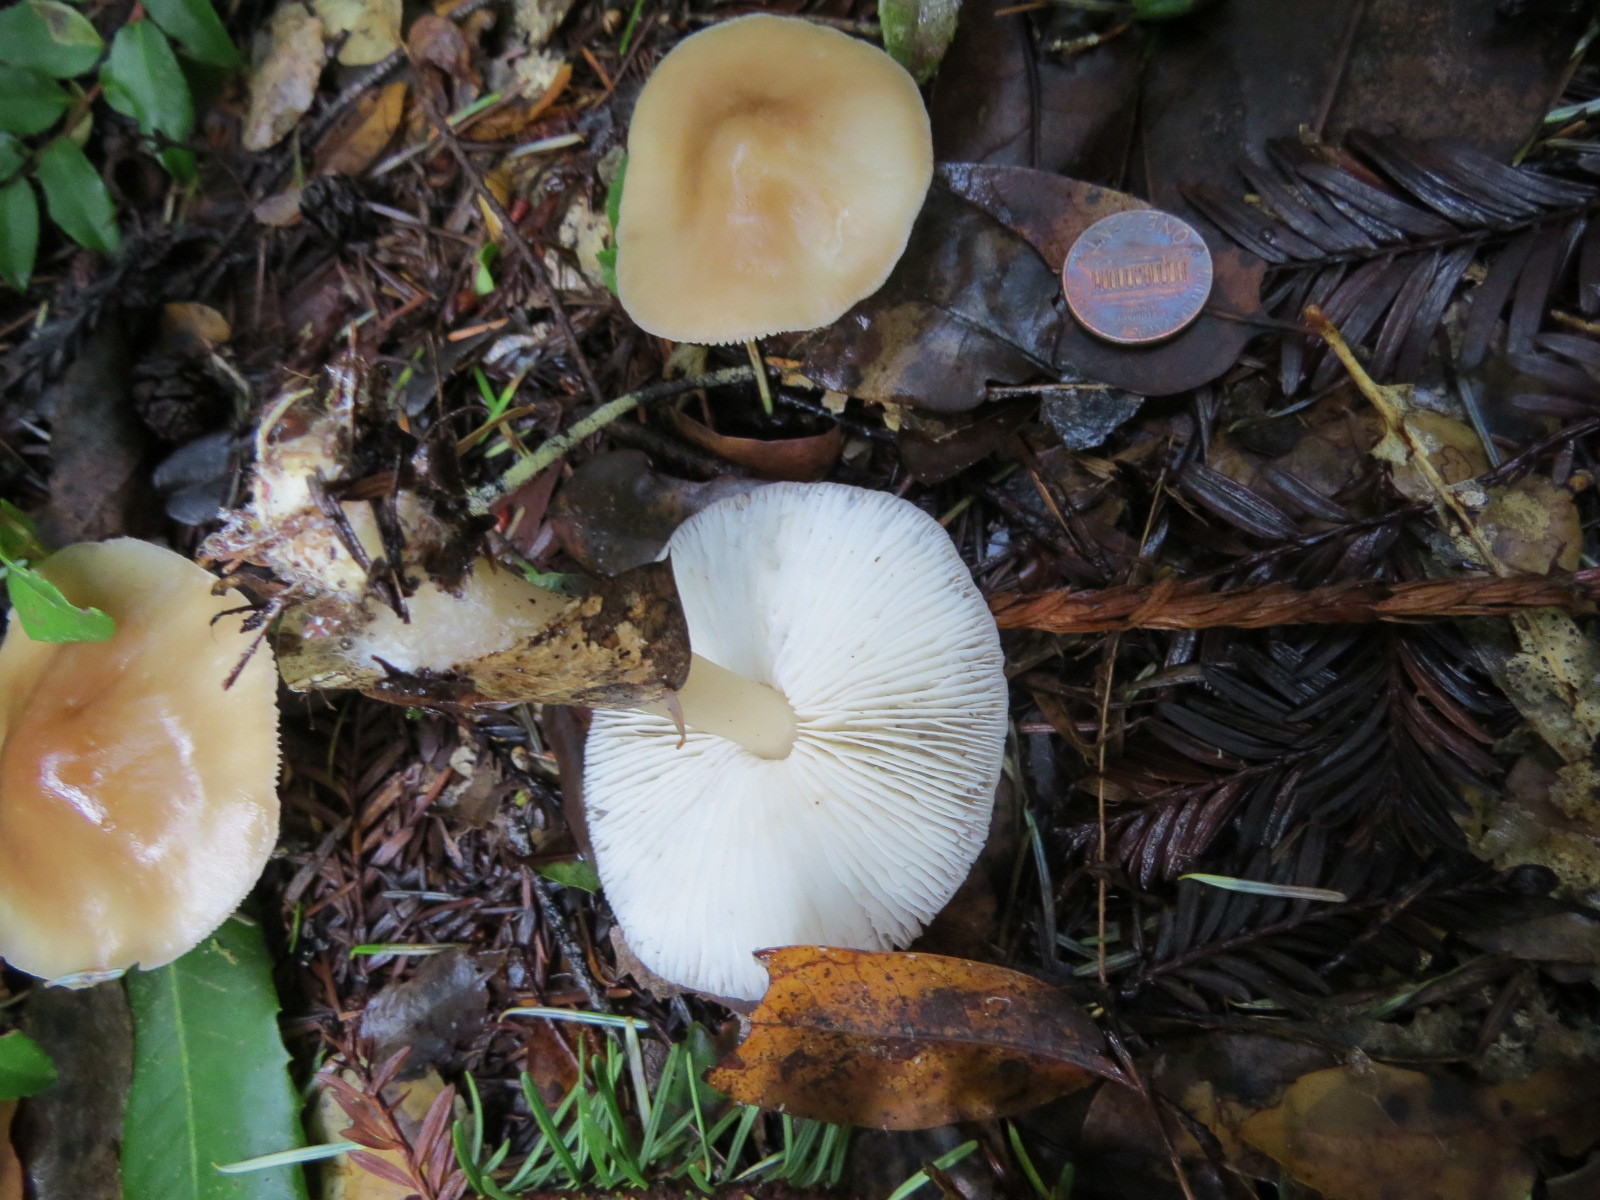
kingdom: Fungi
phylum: Basidiomycota
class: Agaricomycetes
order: Agaricales
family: Omphalotaceae
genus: Rhodocollybia
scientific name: Rhodocollybia butyracea
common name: Butter cap
